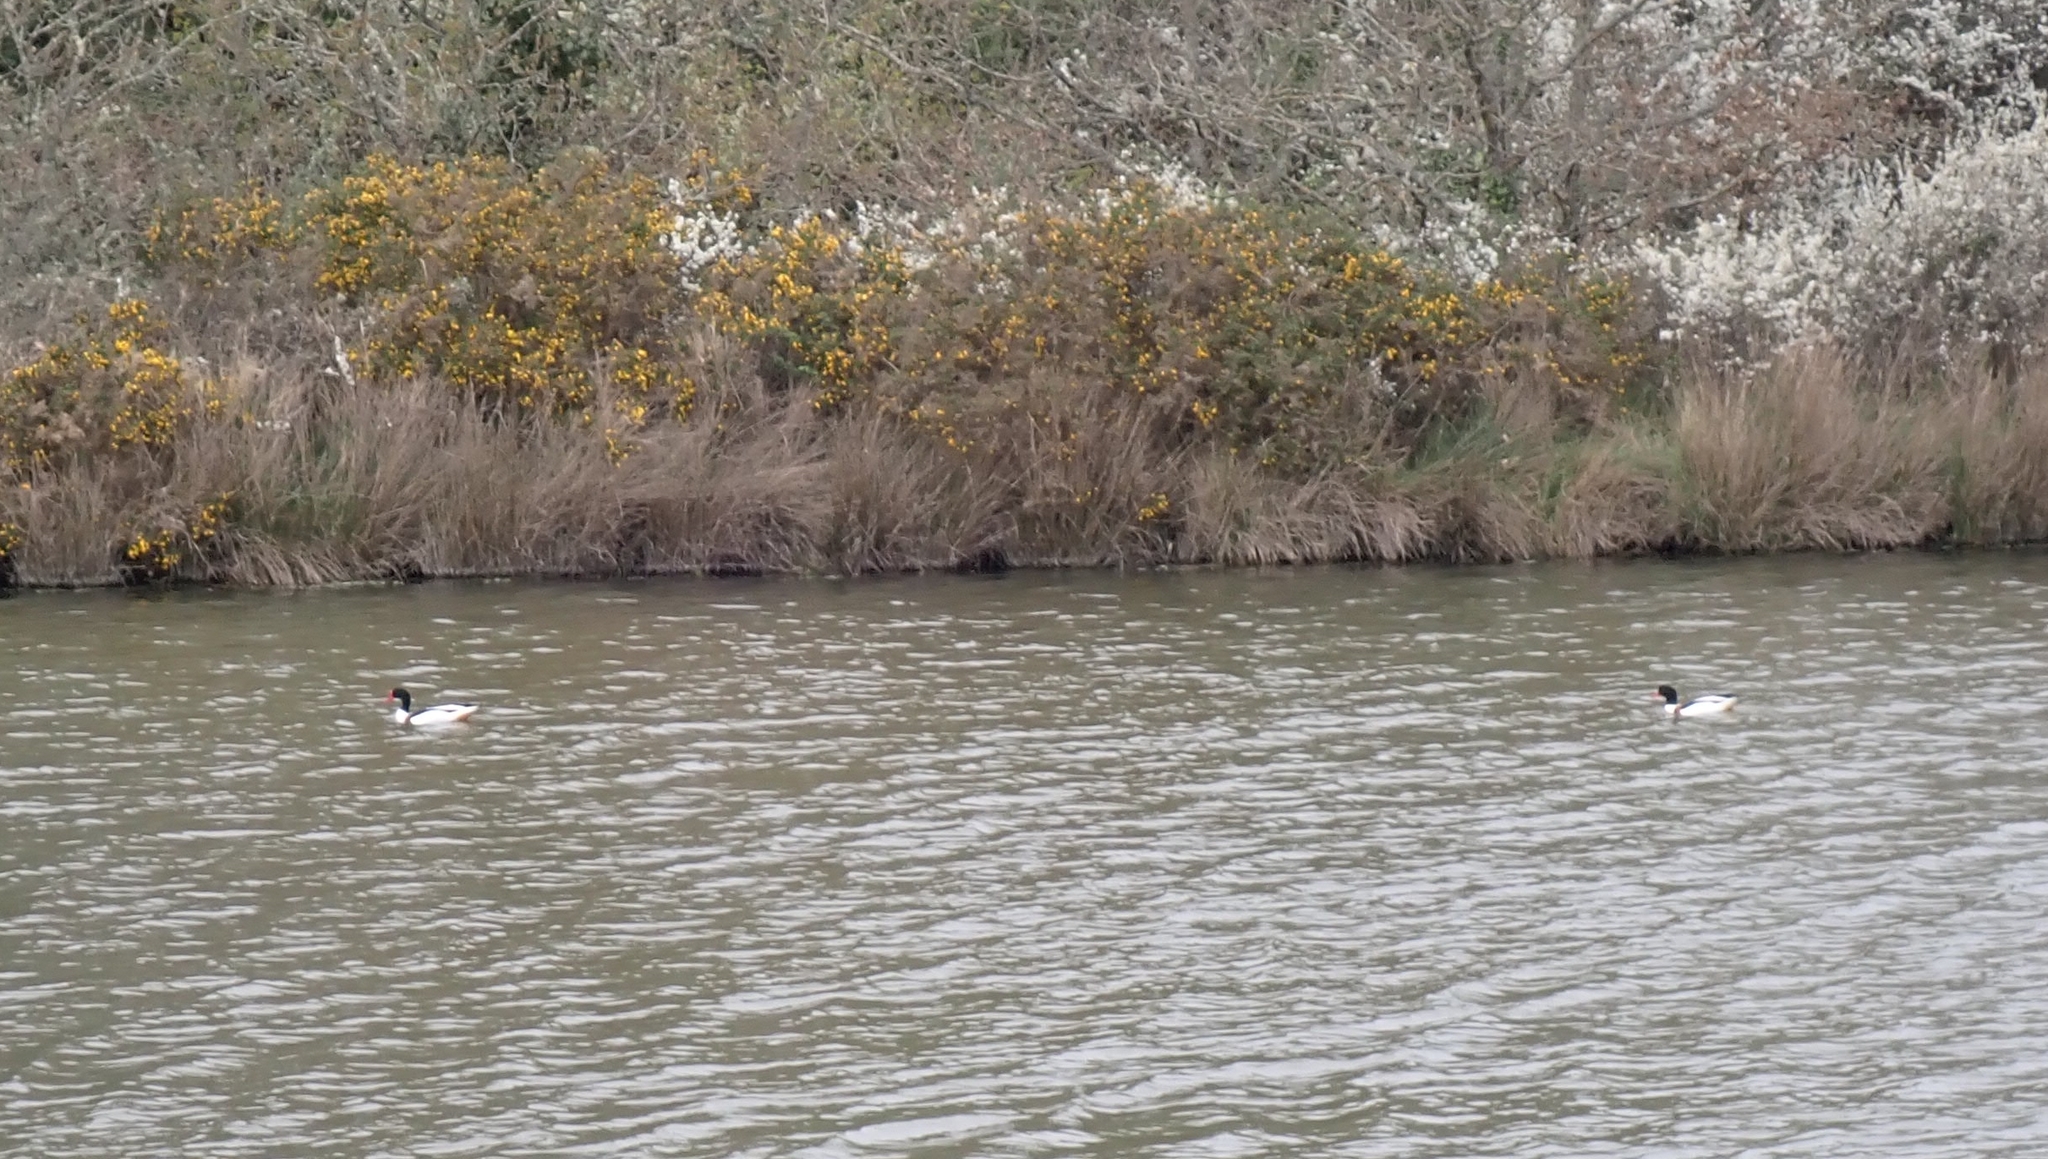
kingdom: Animalia
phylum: Chordata
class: Aves
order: Anseriformes
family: Anatidae
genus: Tadorna
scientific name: Tadorna tadorna
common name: Common shelduck
